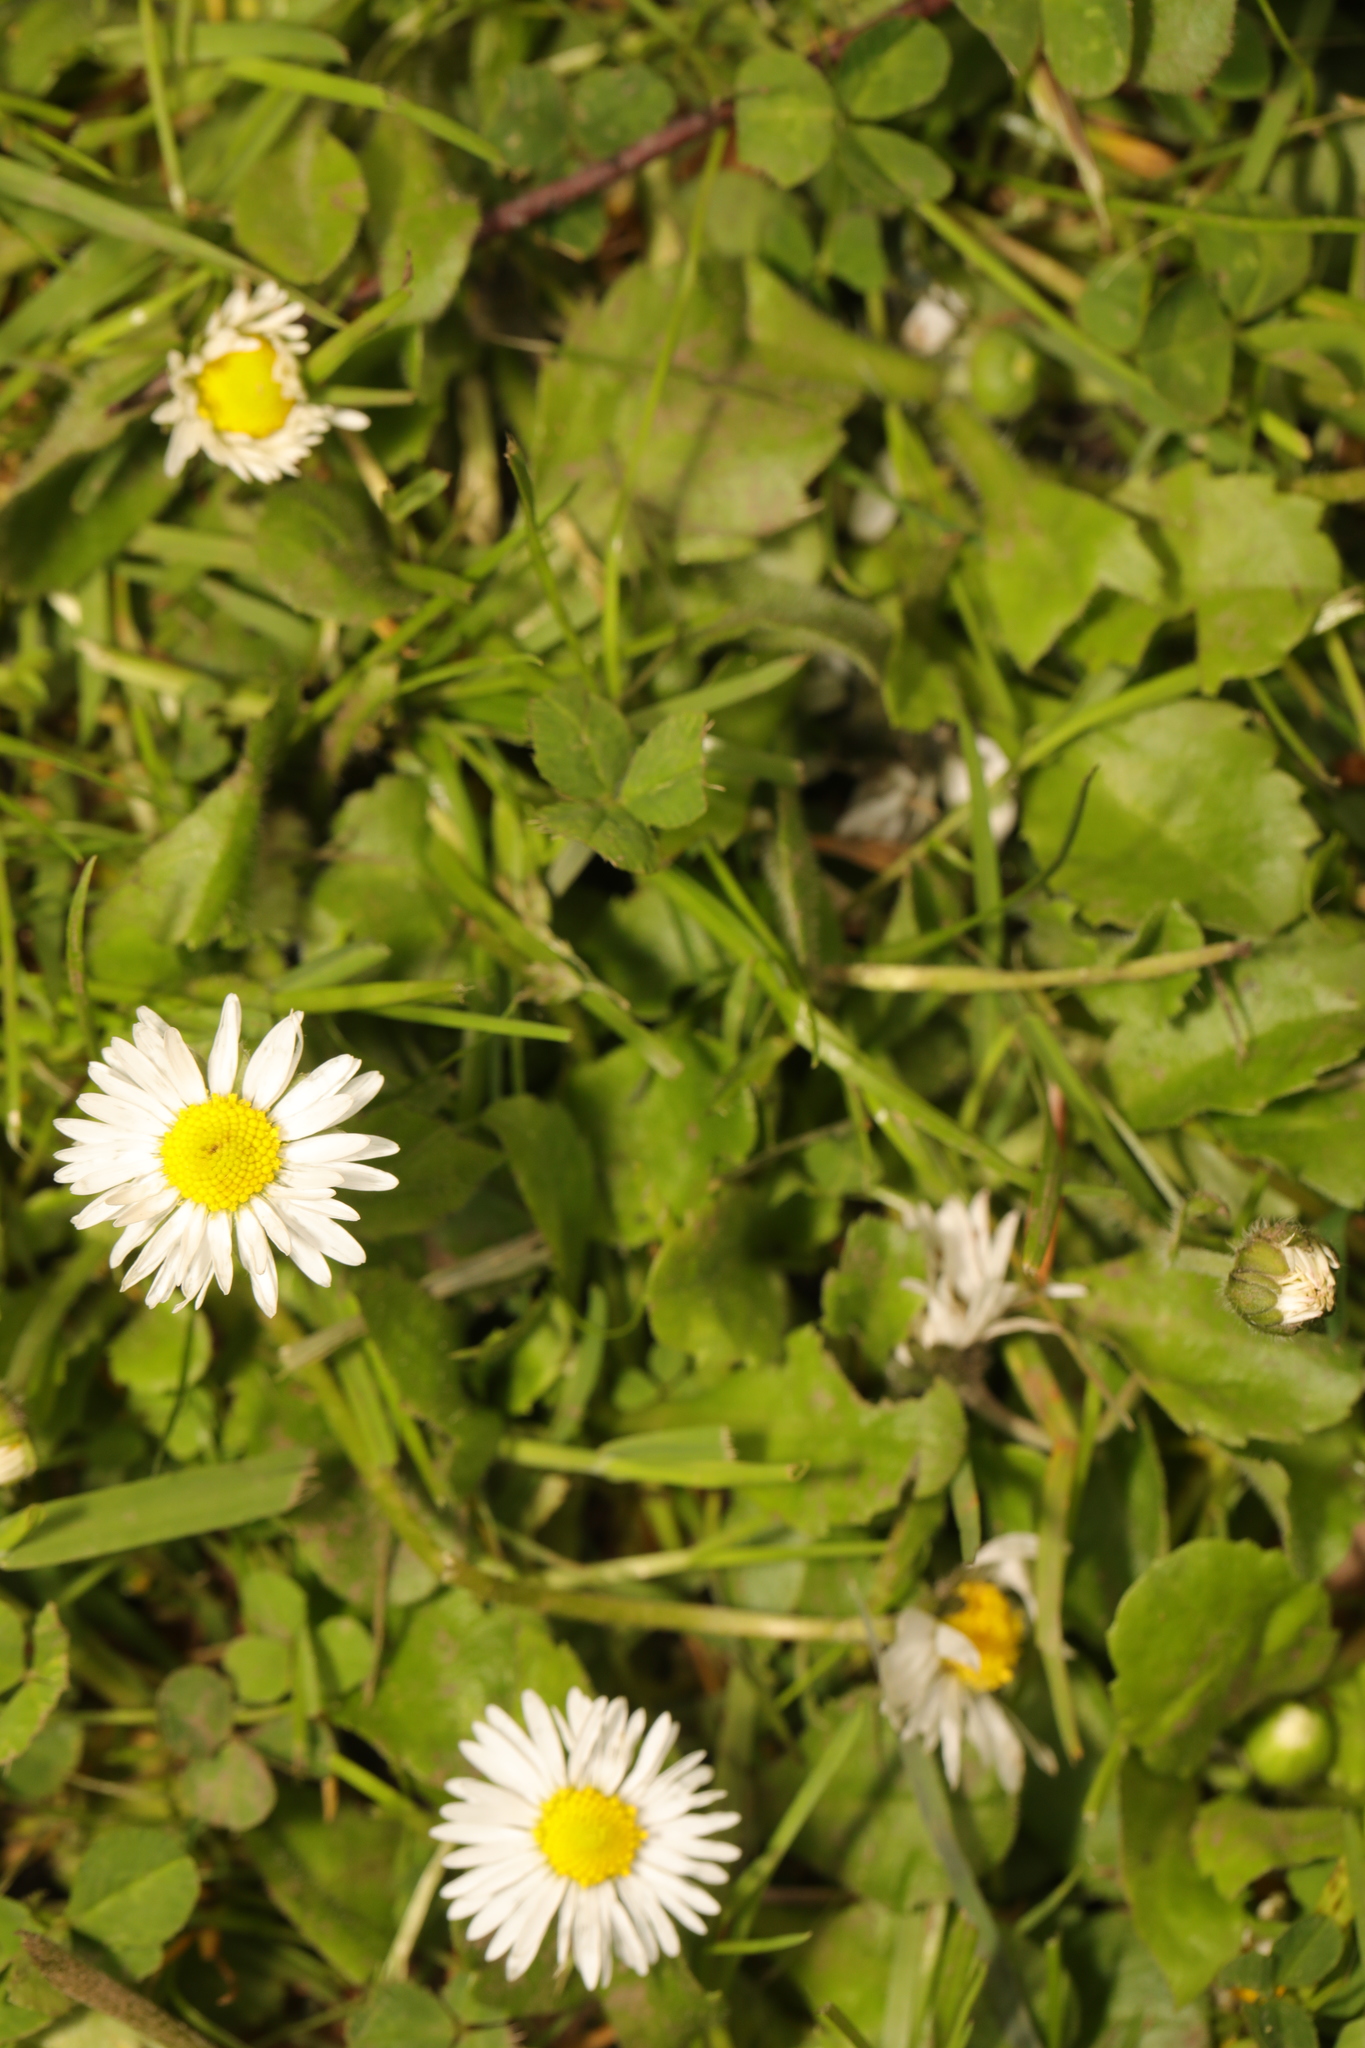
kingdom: Plantae
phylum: Tracheophyta
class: Magnoliopsida
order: Asterales
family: Asteraceae
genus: Bellis
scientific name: Bellis perennis
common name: Lawndaisy
